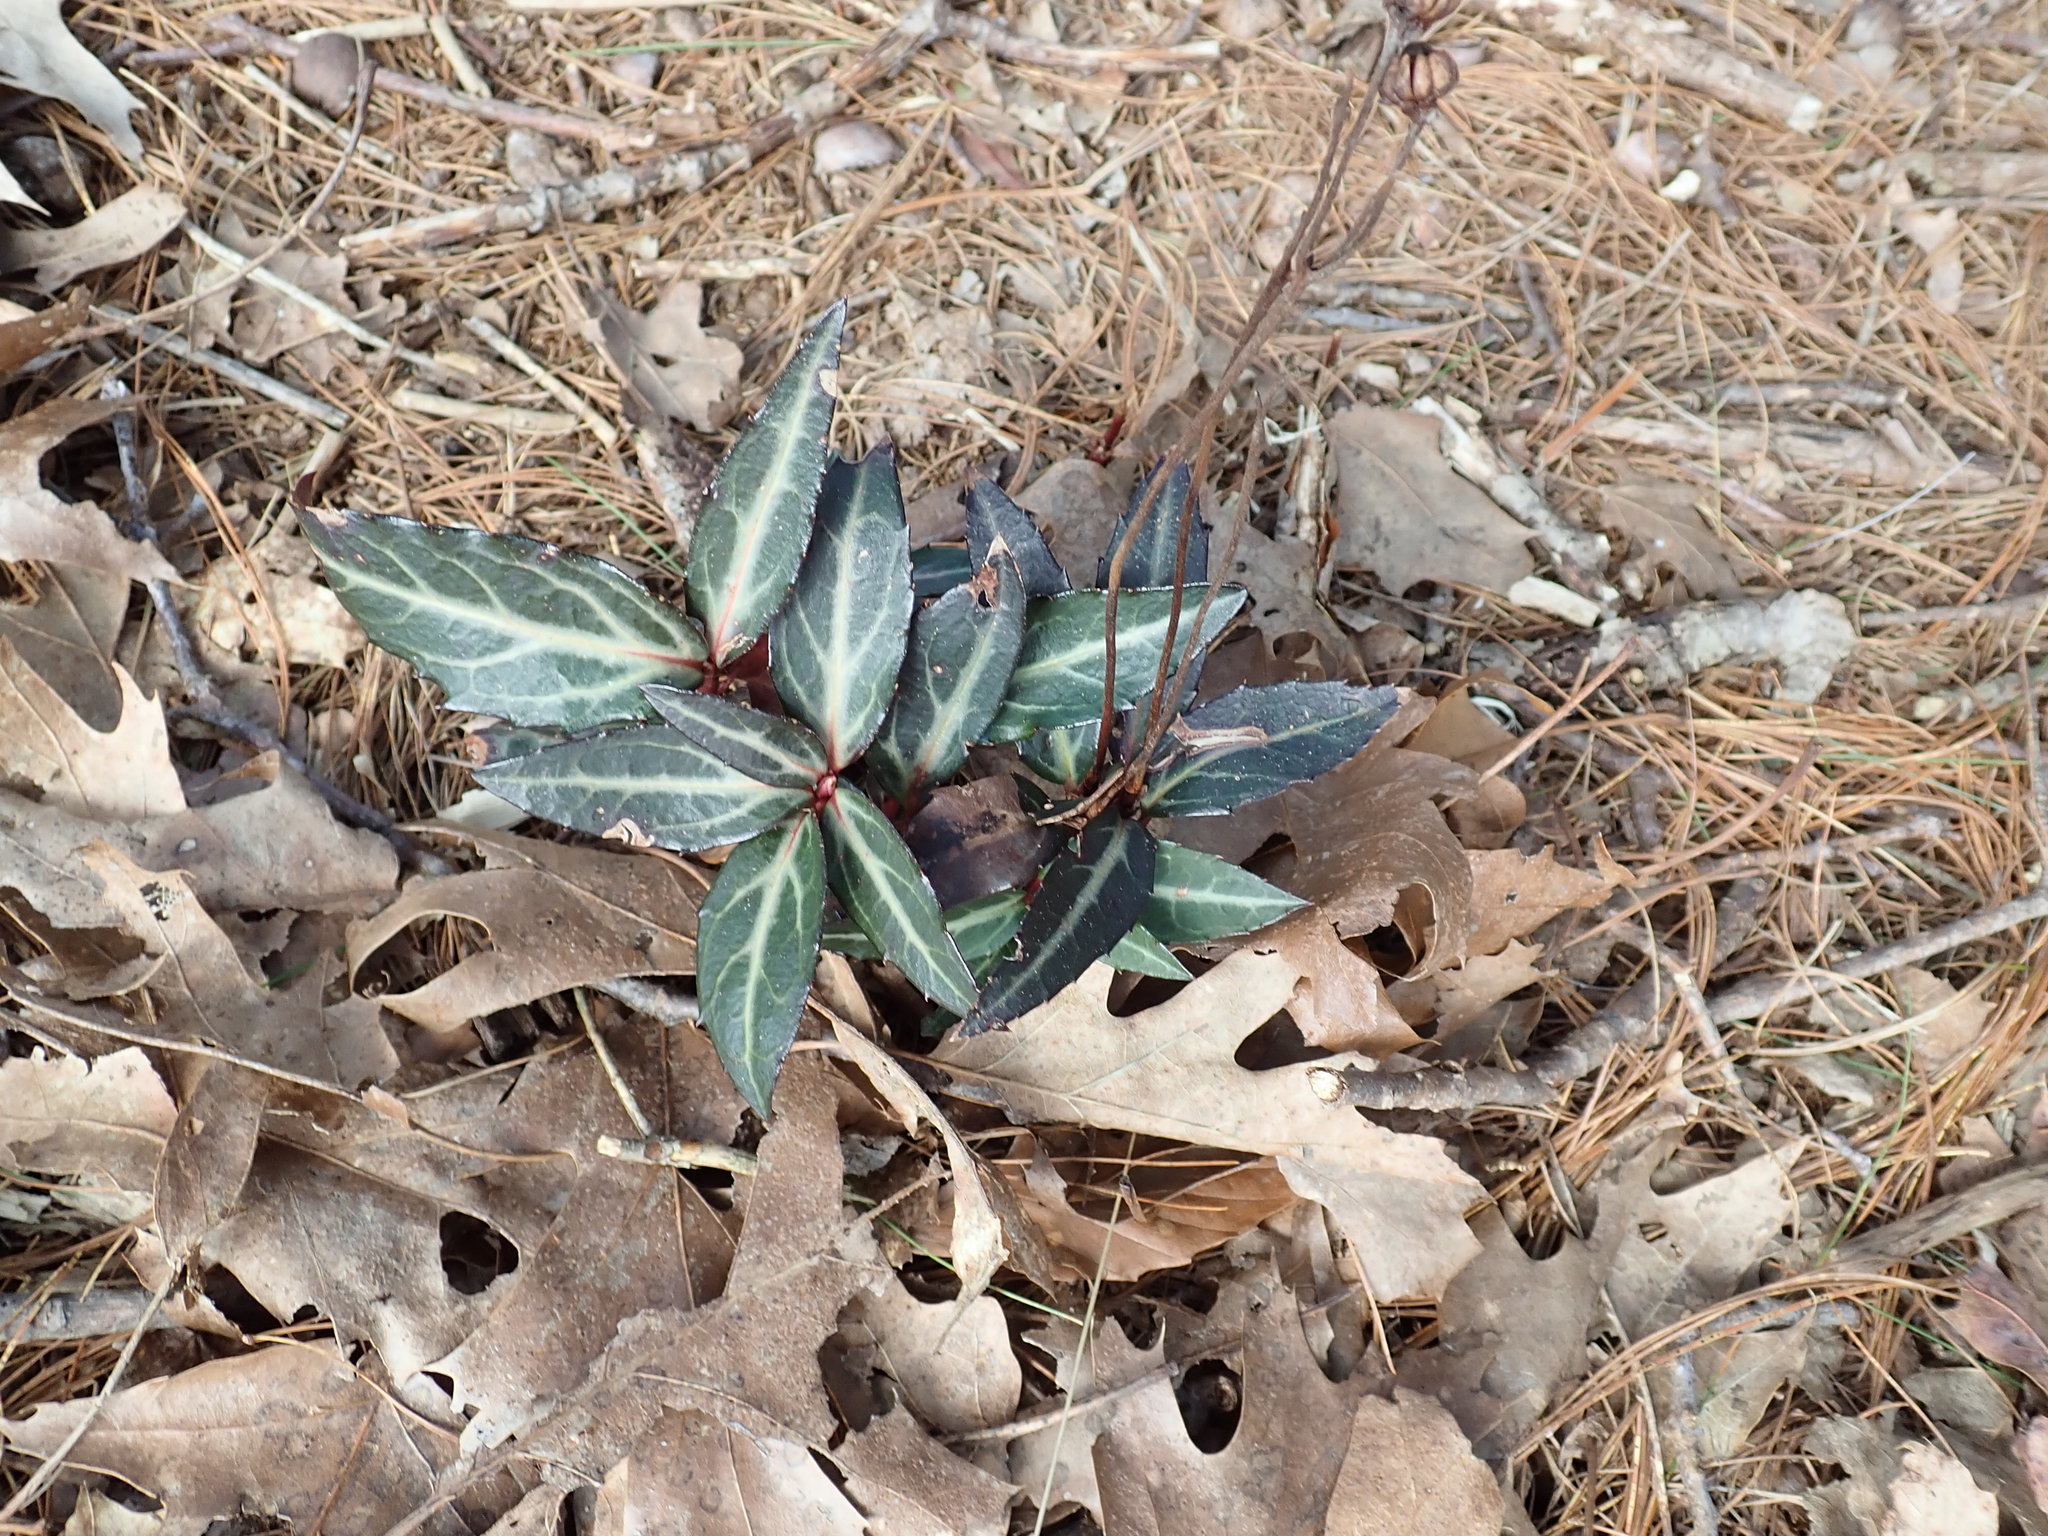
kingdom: Plantae
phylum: Tracheophyta
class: Magnoliopsida
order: Ericales
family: Ericaceae
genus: Chimaphila
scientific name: Chimaphila maculata
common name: Spotted pipsissewa
